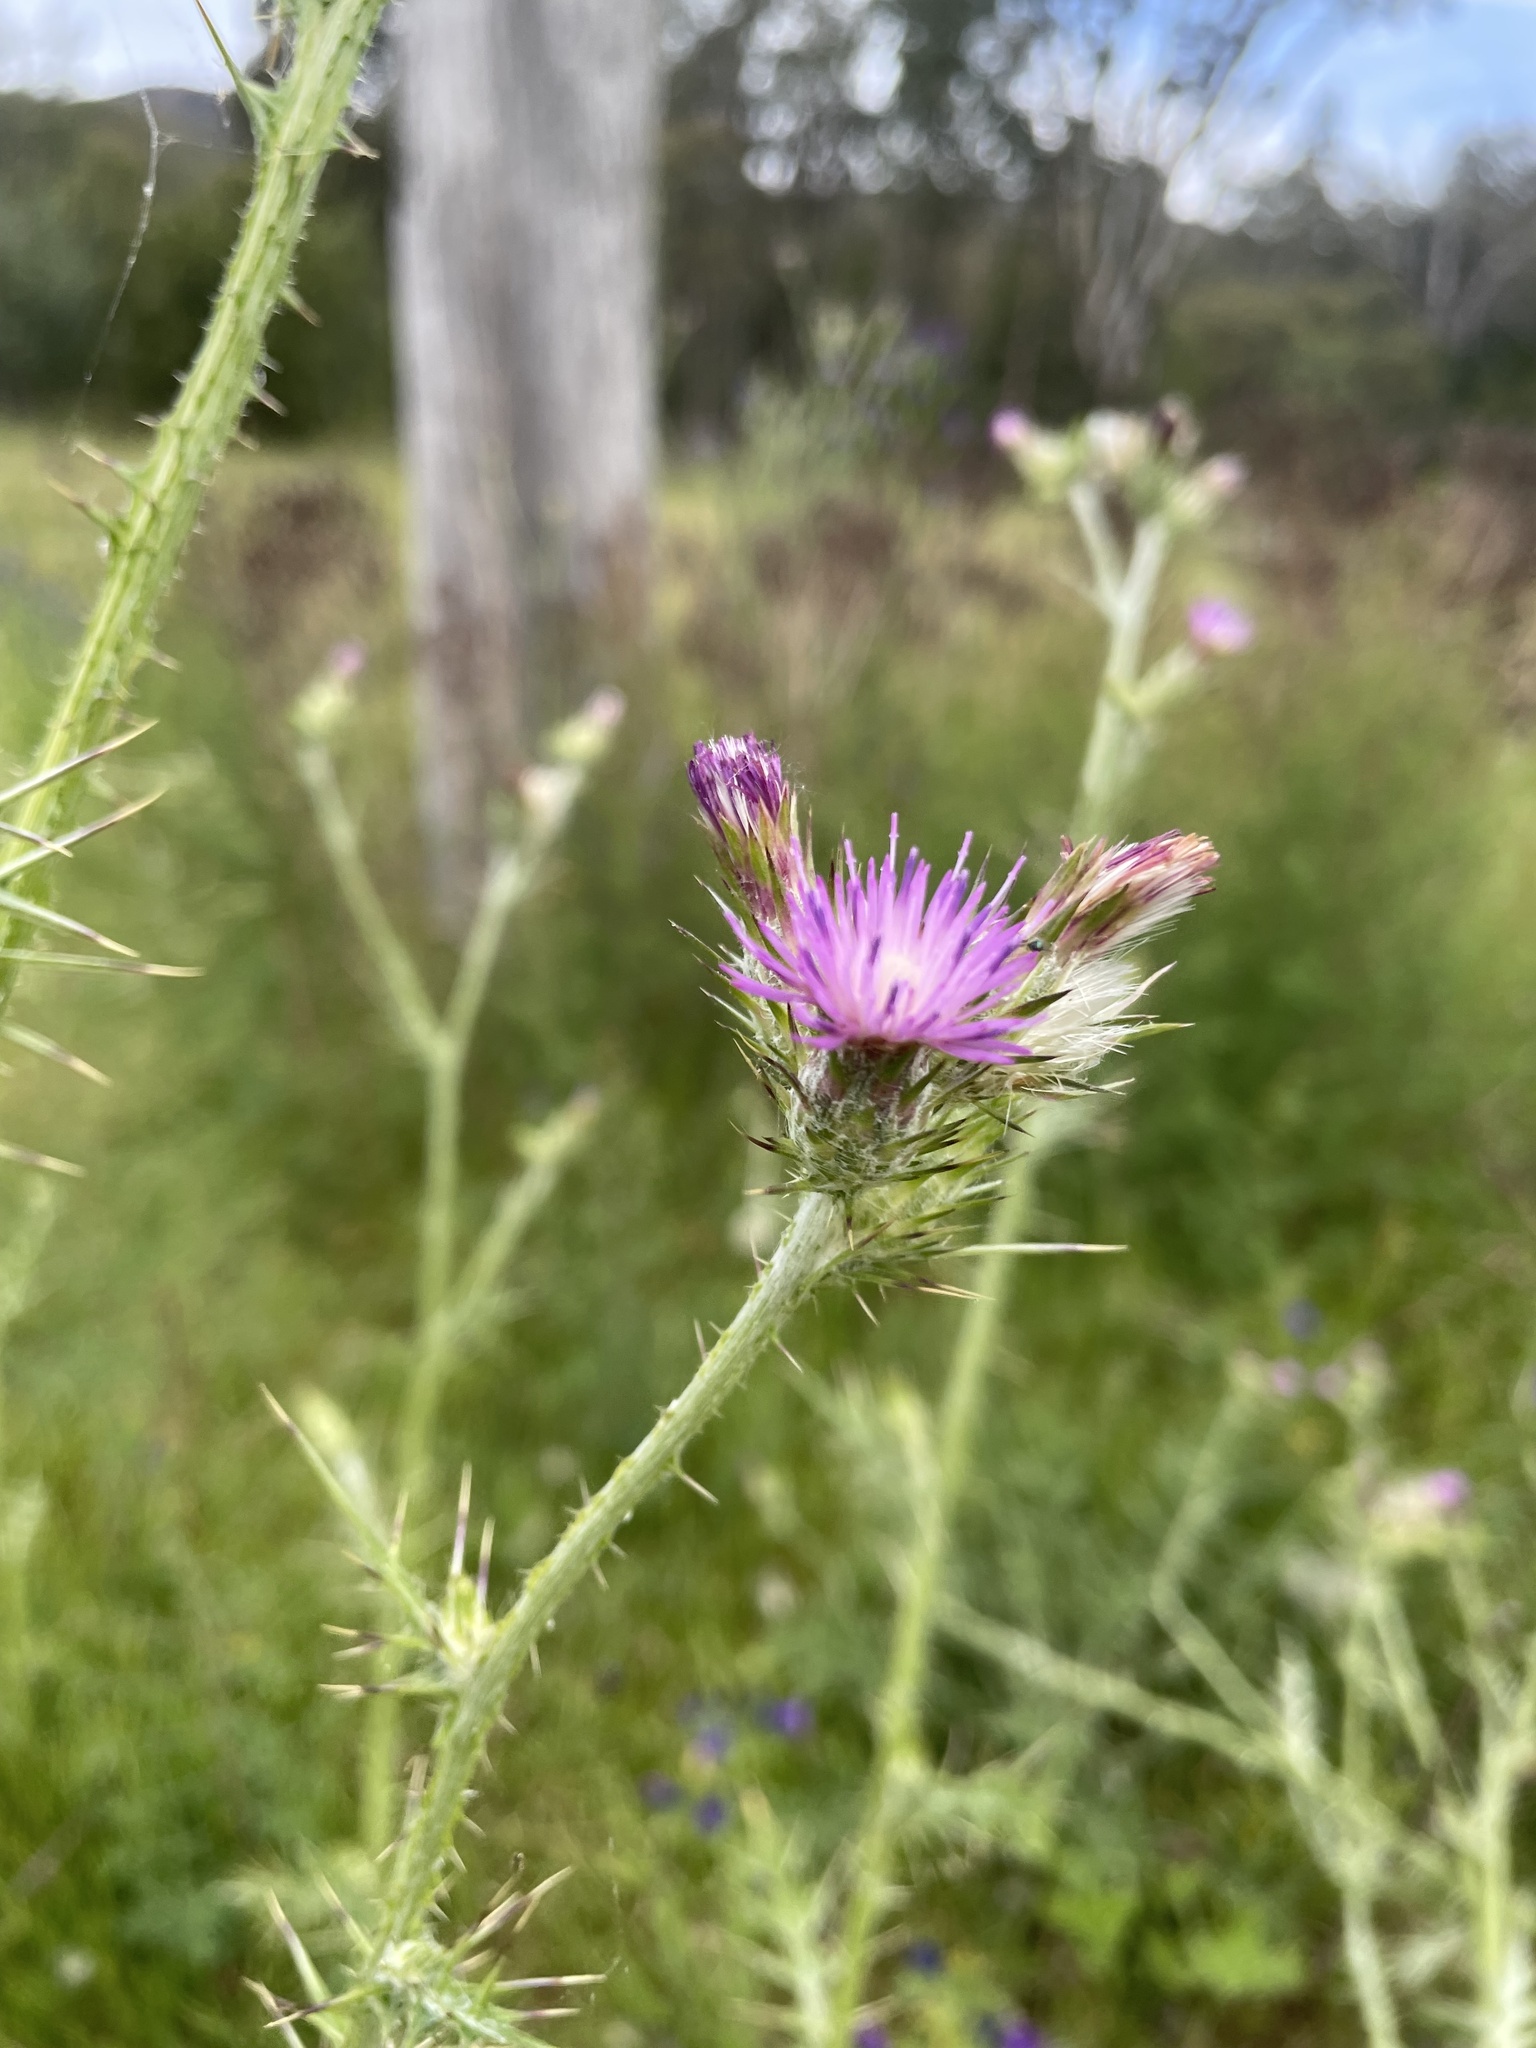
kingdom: Plantae
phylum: Tracheophyta
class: Magnoliopsida
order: Asterales
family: Asteraceae
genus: Carduus
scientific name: Carduus pycnocephalus
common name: Plymouth thistle
